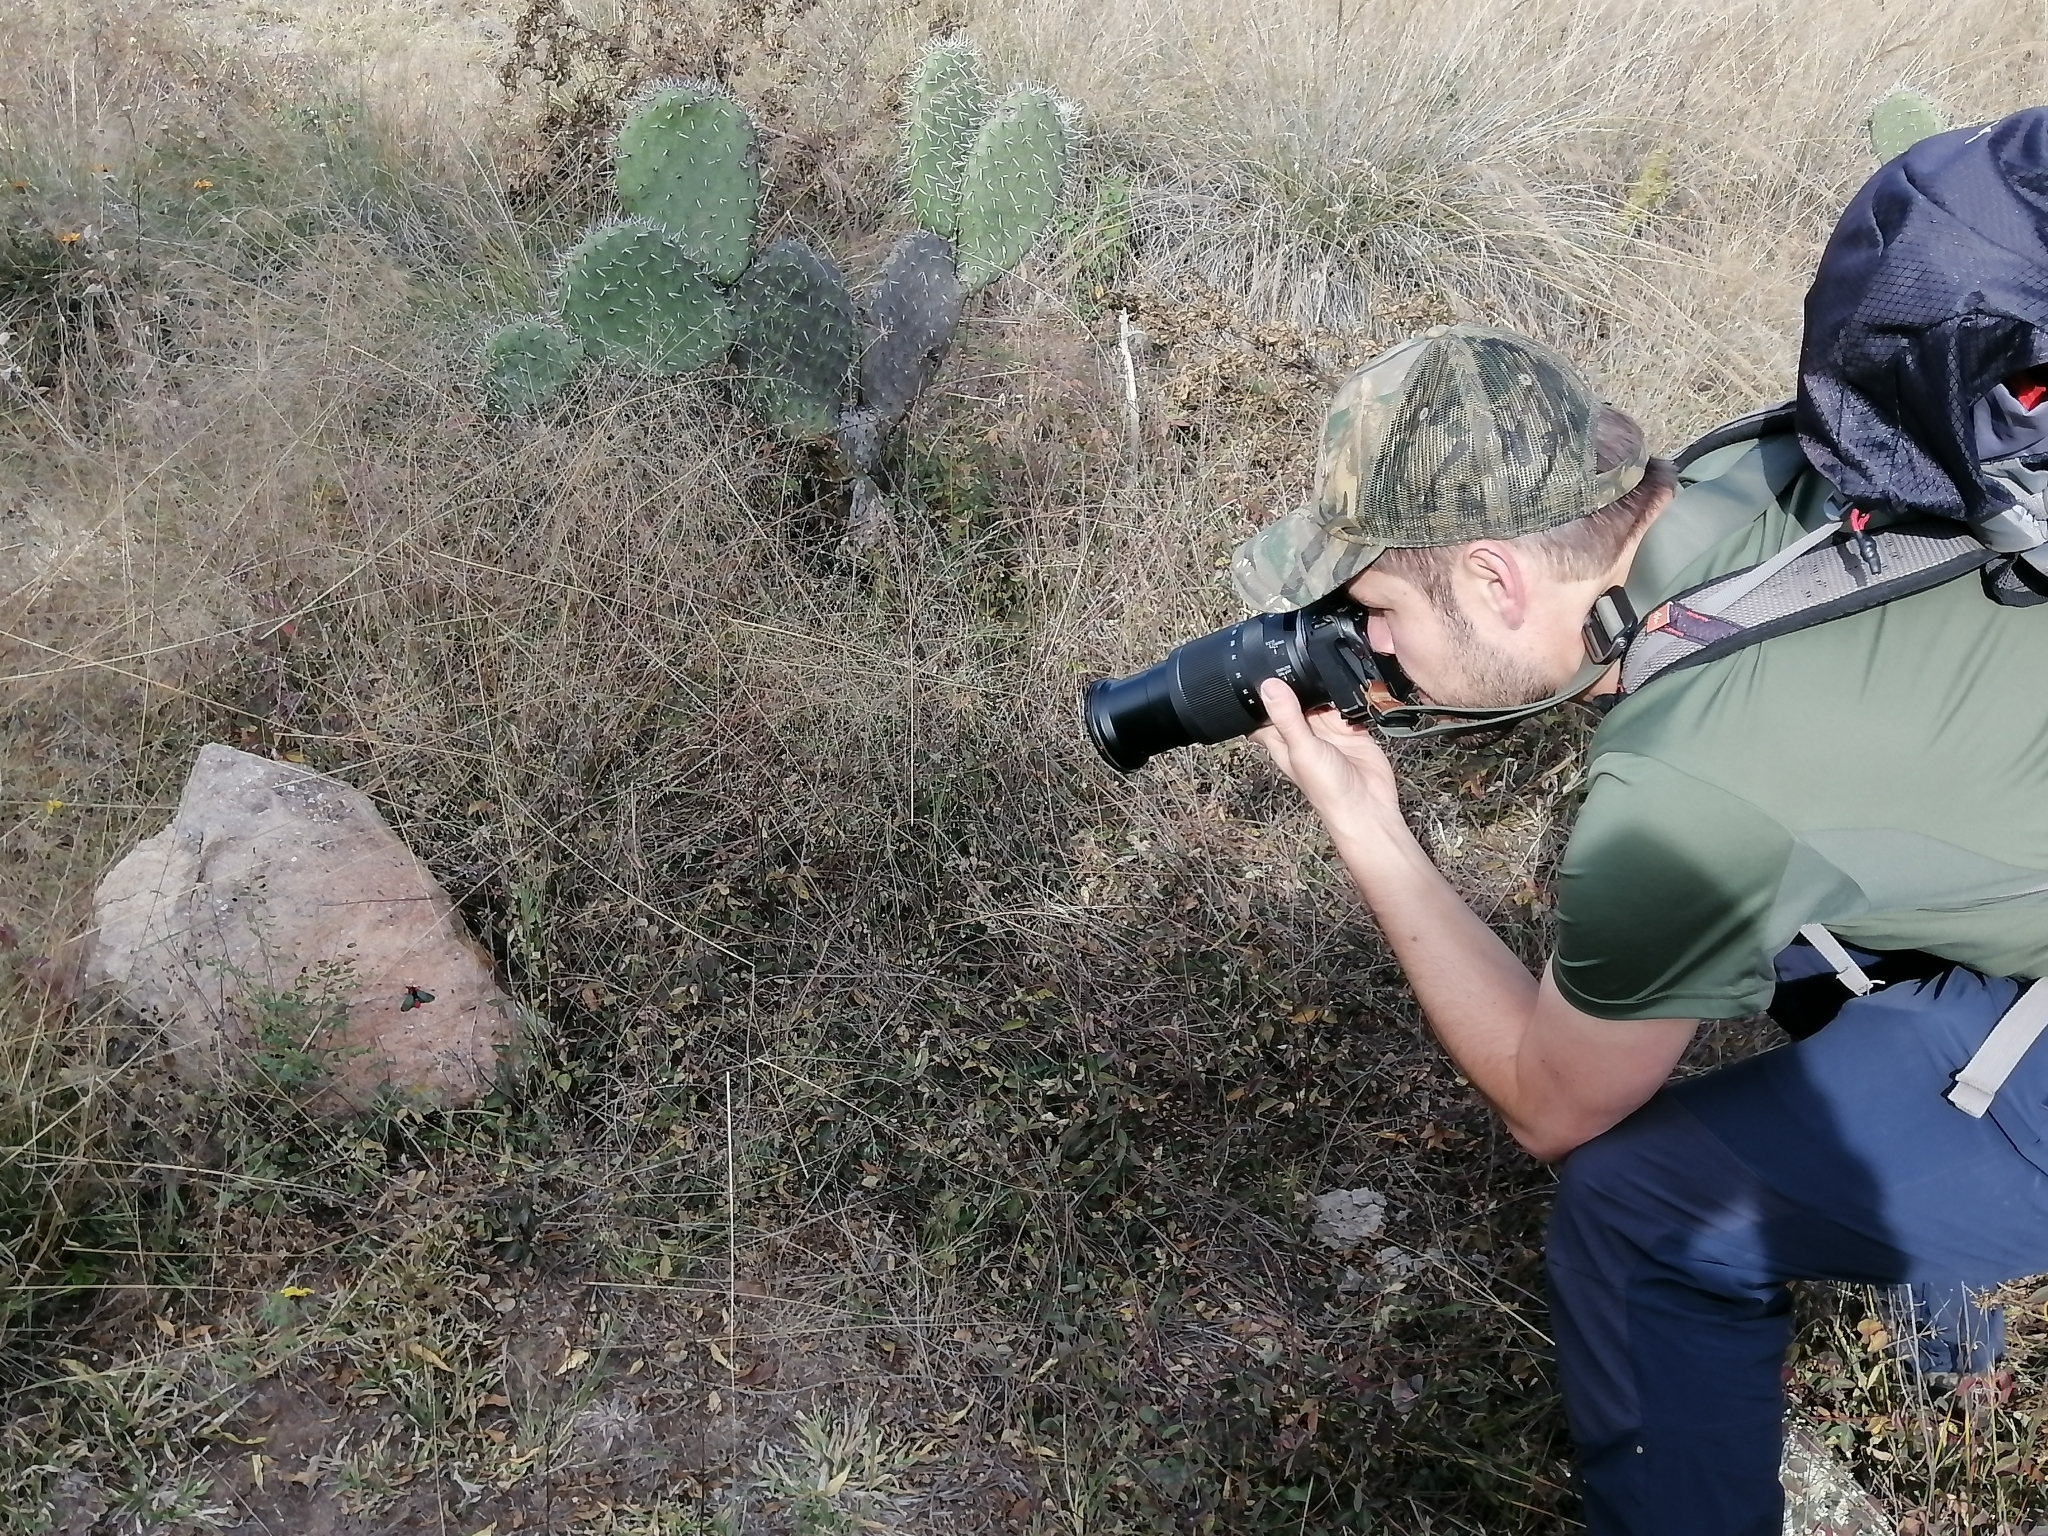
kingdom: Animalia
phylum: Arthropoda
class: Insecta
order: Lepidoptera
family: Erebidae
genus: Lerina
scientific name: Lerina incarnata
